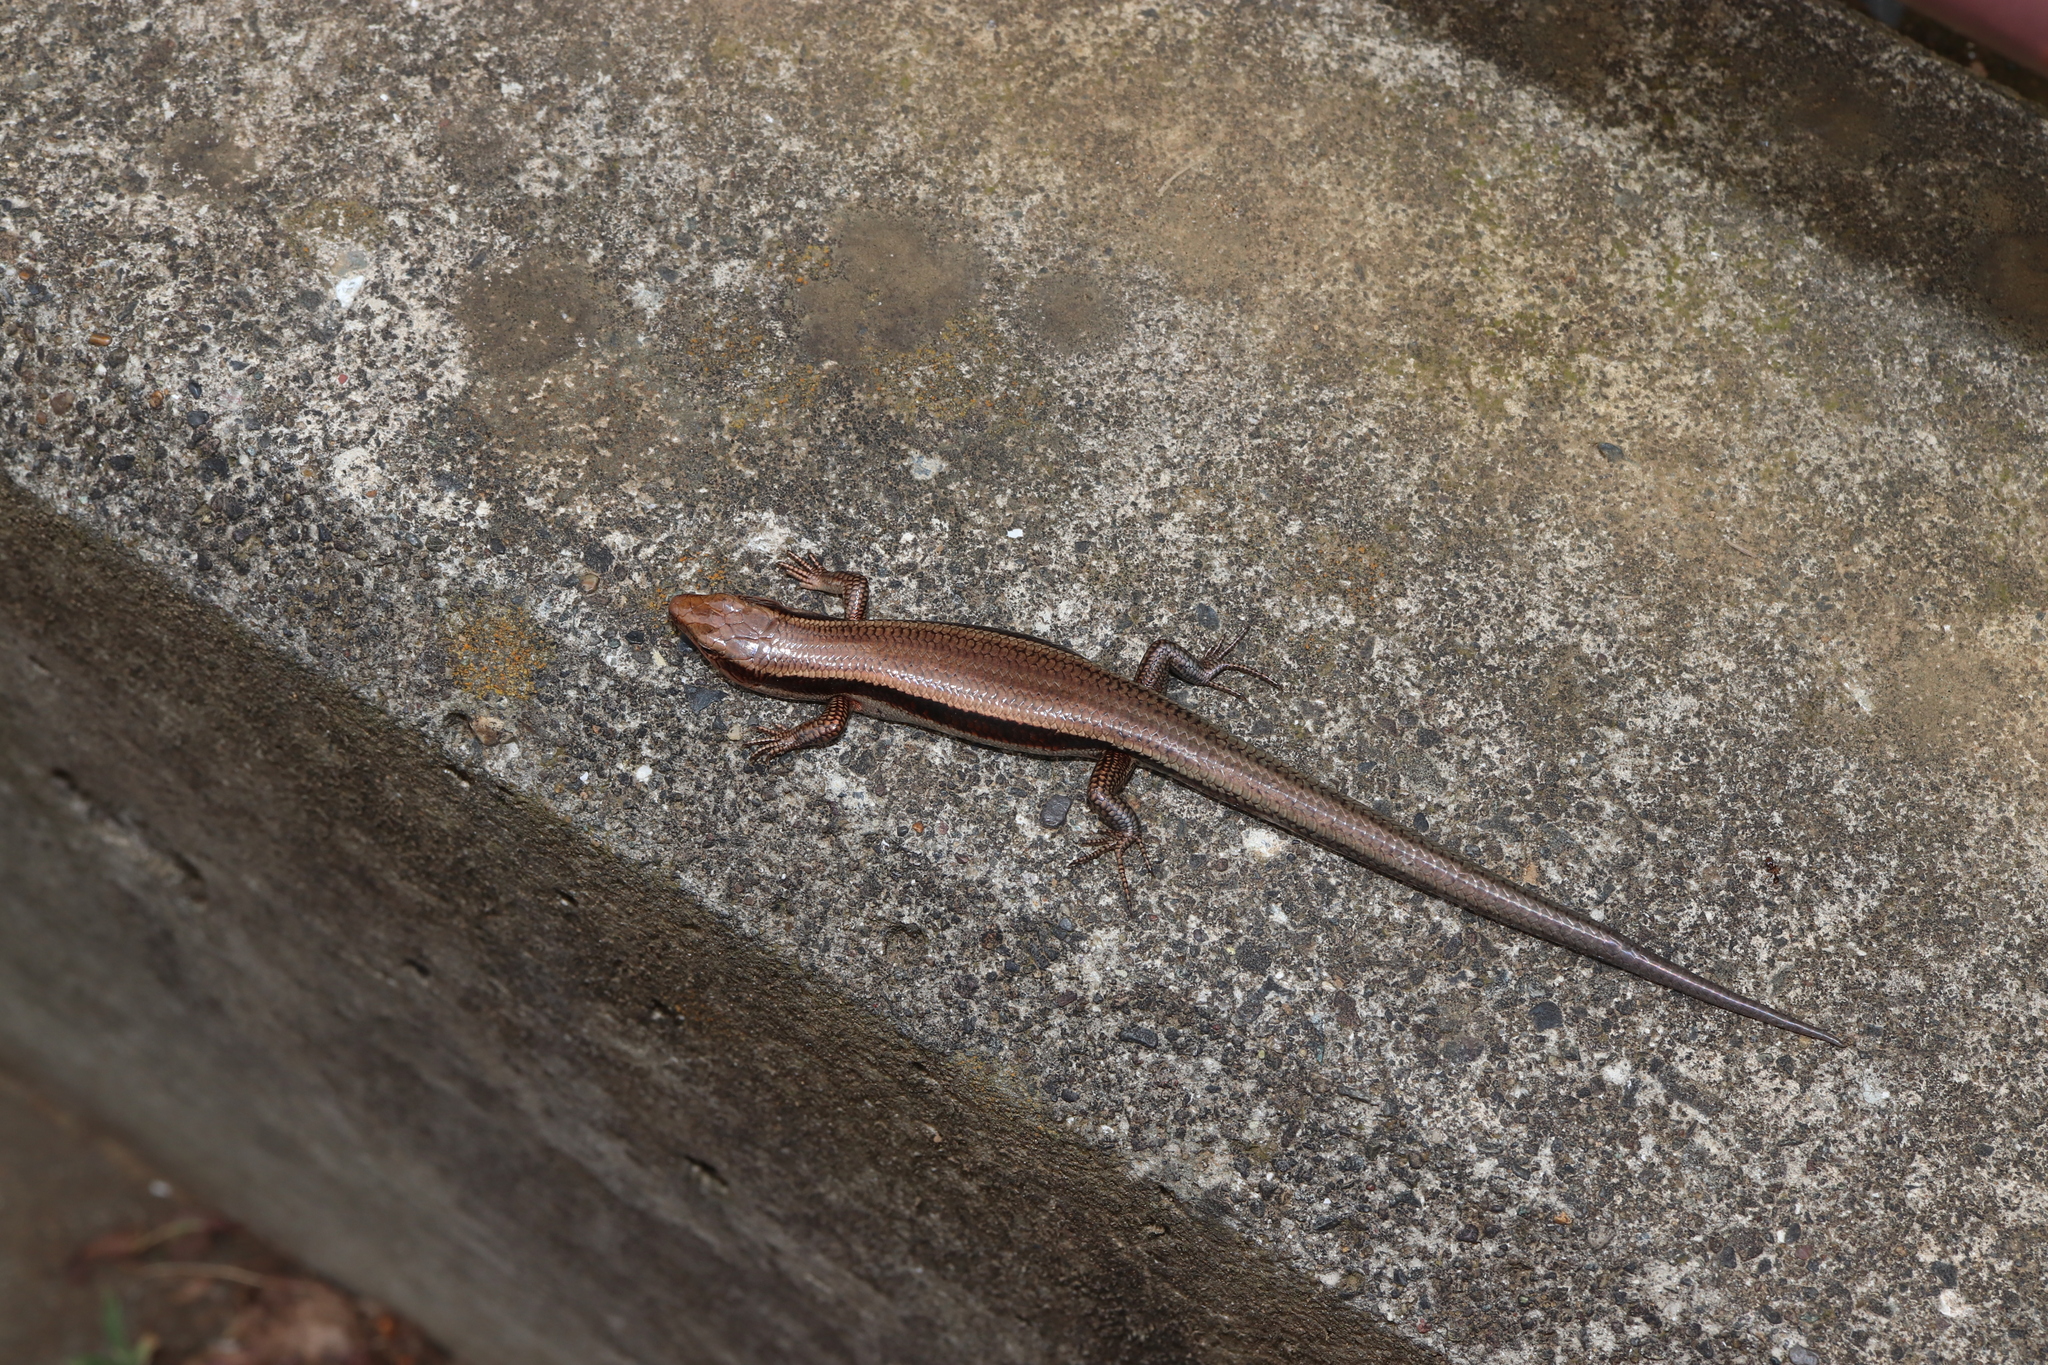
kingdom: Animalia
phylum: Chordata
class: Squamata
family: Scincidae
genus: Plestiodon
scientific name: Plestiodon finitimus
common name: Far eastern skink
